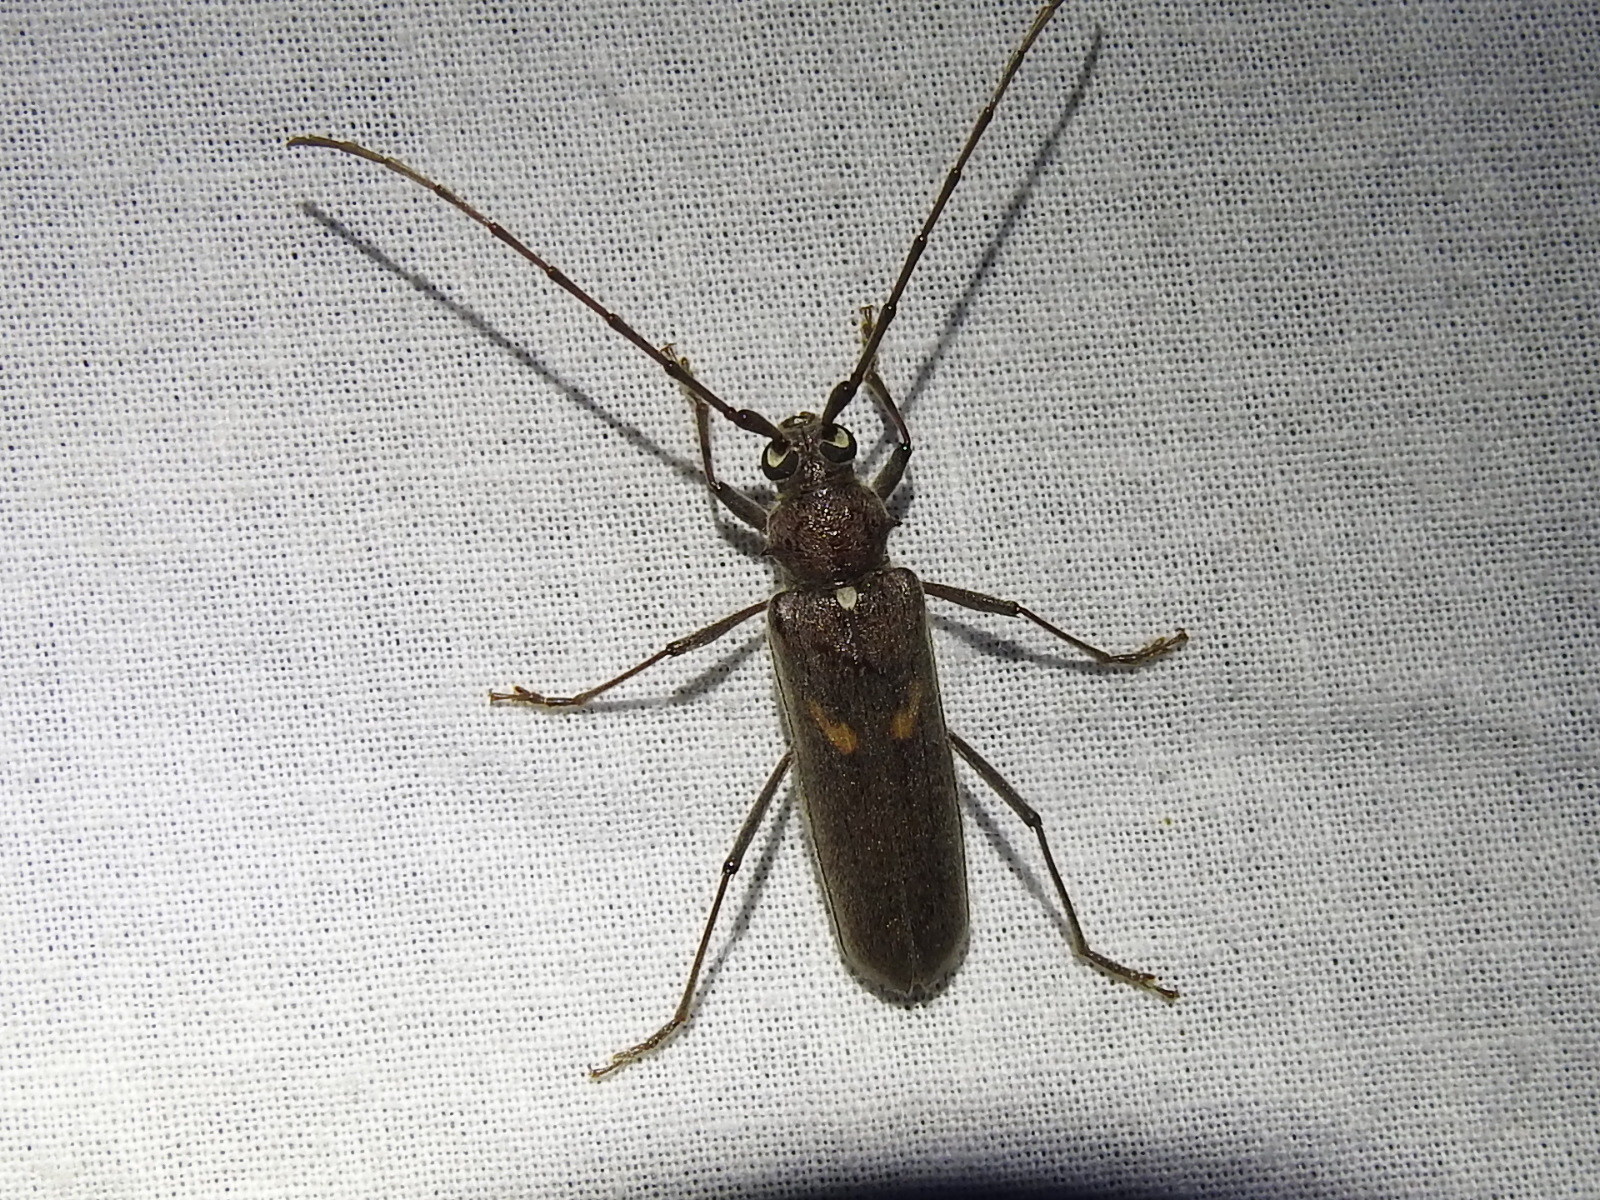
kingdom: Animalia
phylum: Arthropoda
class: Insecta
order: Coleoptera
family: Cerambycidae
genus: Knulliana
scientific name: Knulliana cincta
